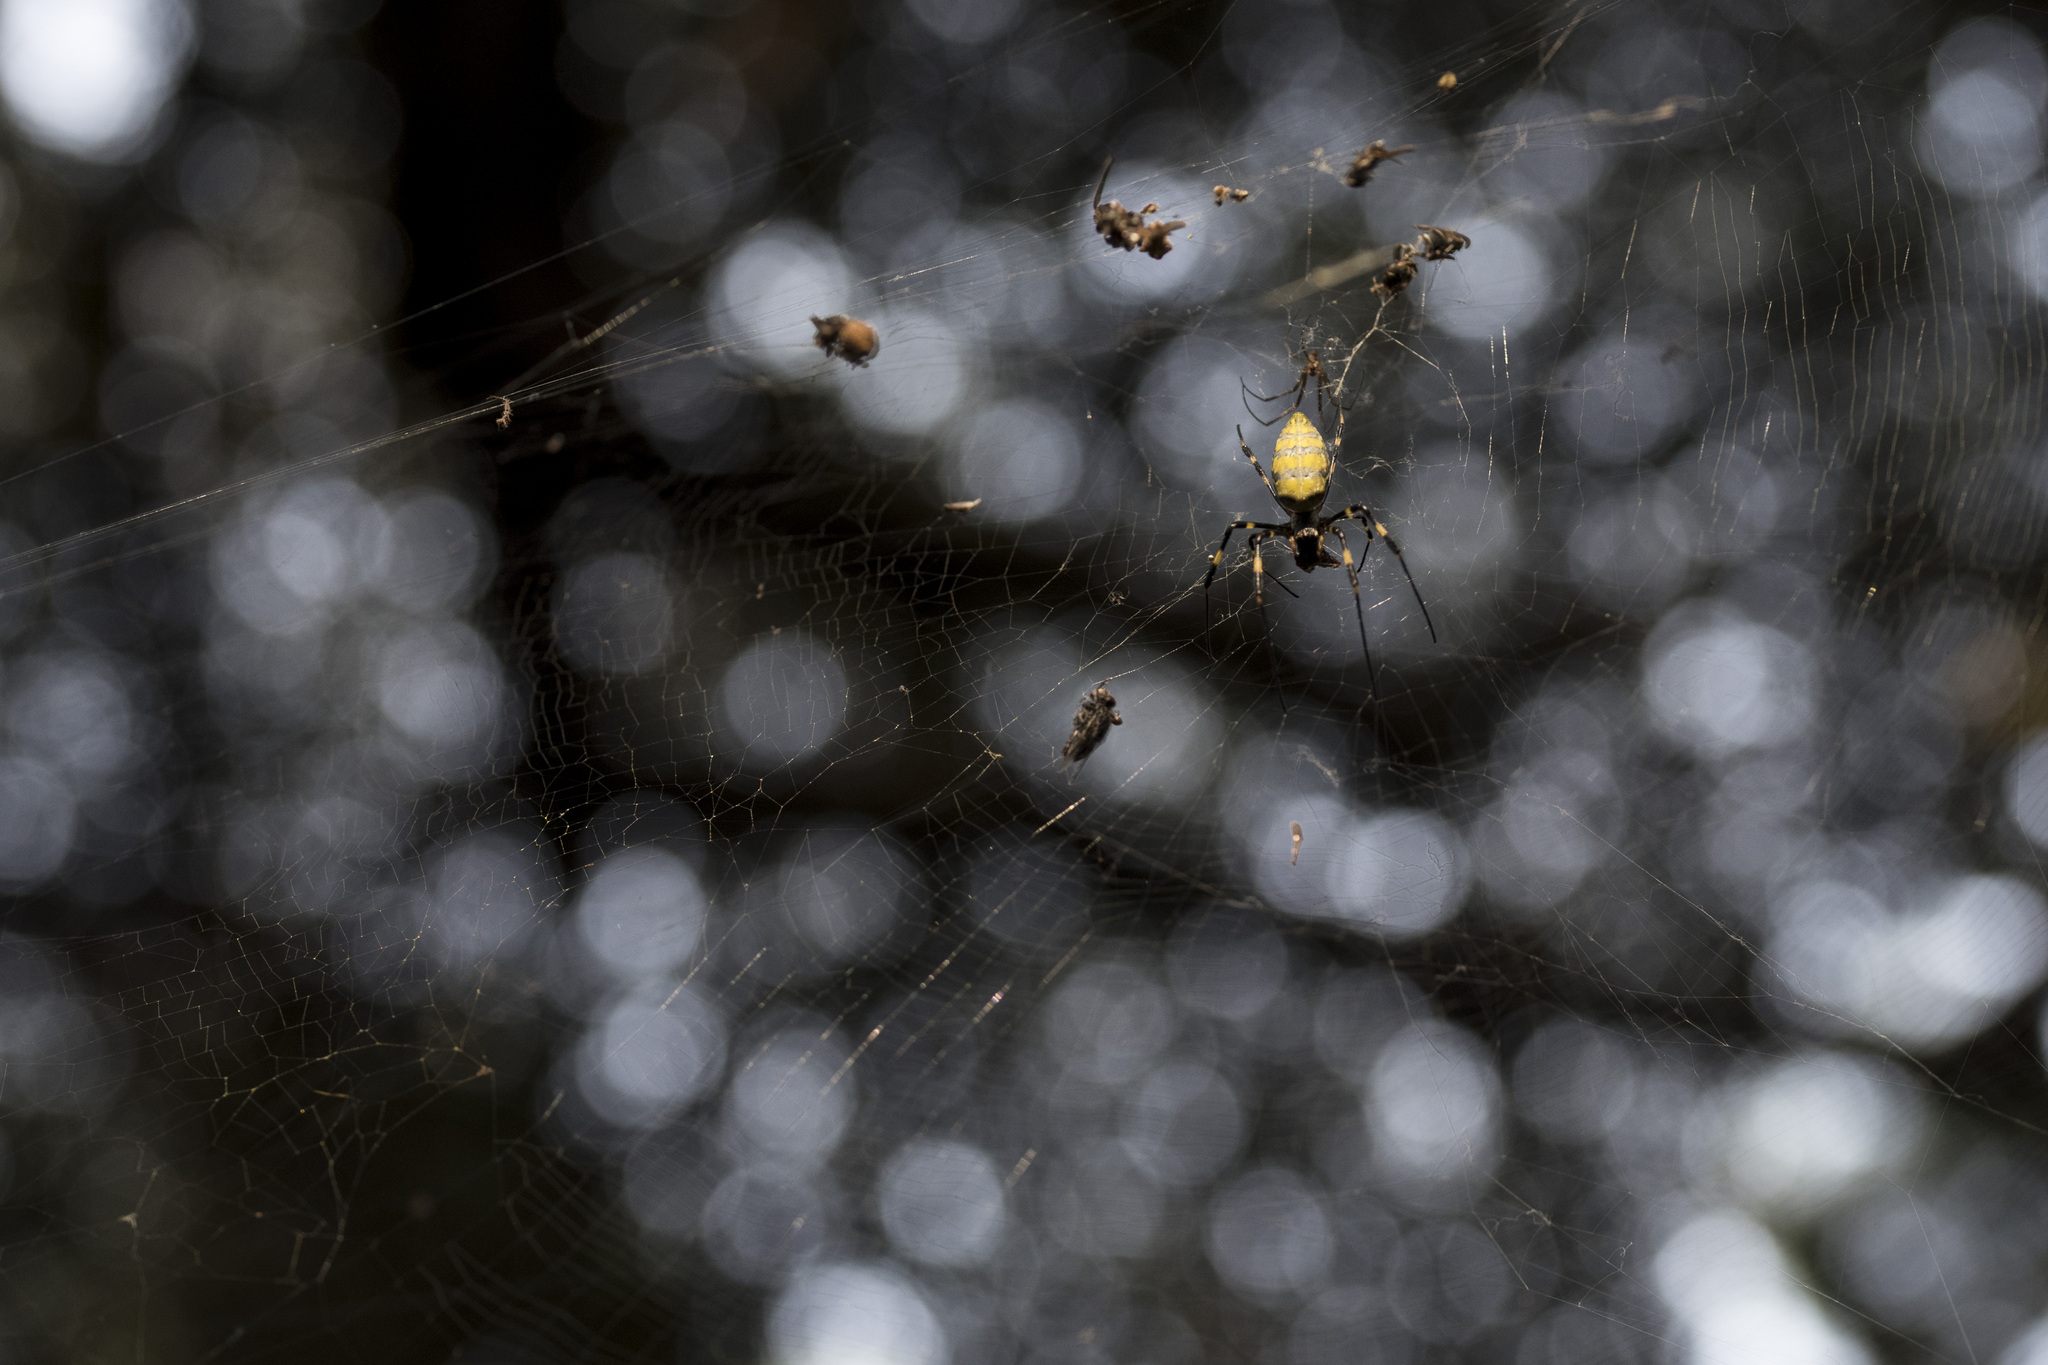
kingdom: Animalia
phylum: Arthropoda
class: Arachnida
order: Araneae
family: Araneidae
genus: Trichonephila
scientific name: Trichonephila clavata
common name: Jorō spider
